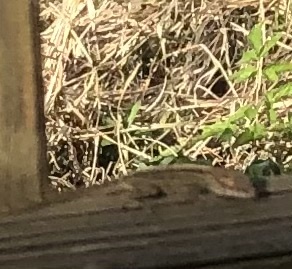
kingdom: Animalia
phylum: Chordata
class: Squamata
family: Dactyloidae
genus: Anolis
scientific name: Anolis sagrei
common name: Brown anole
